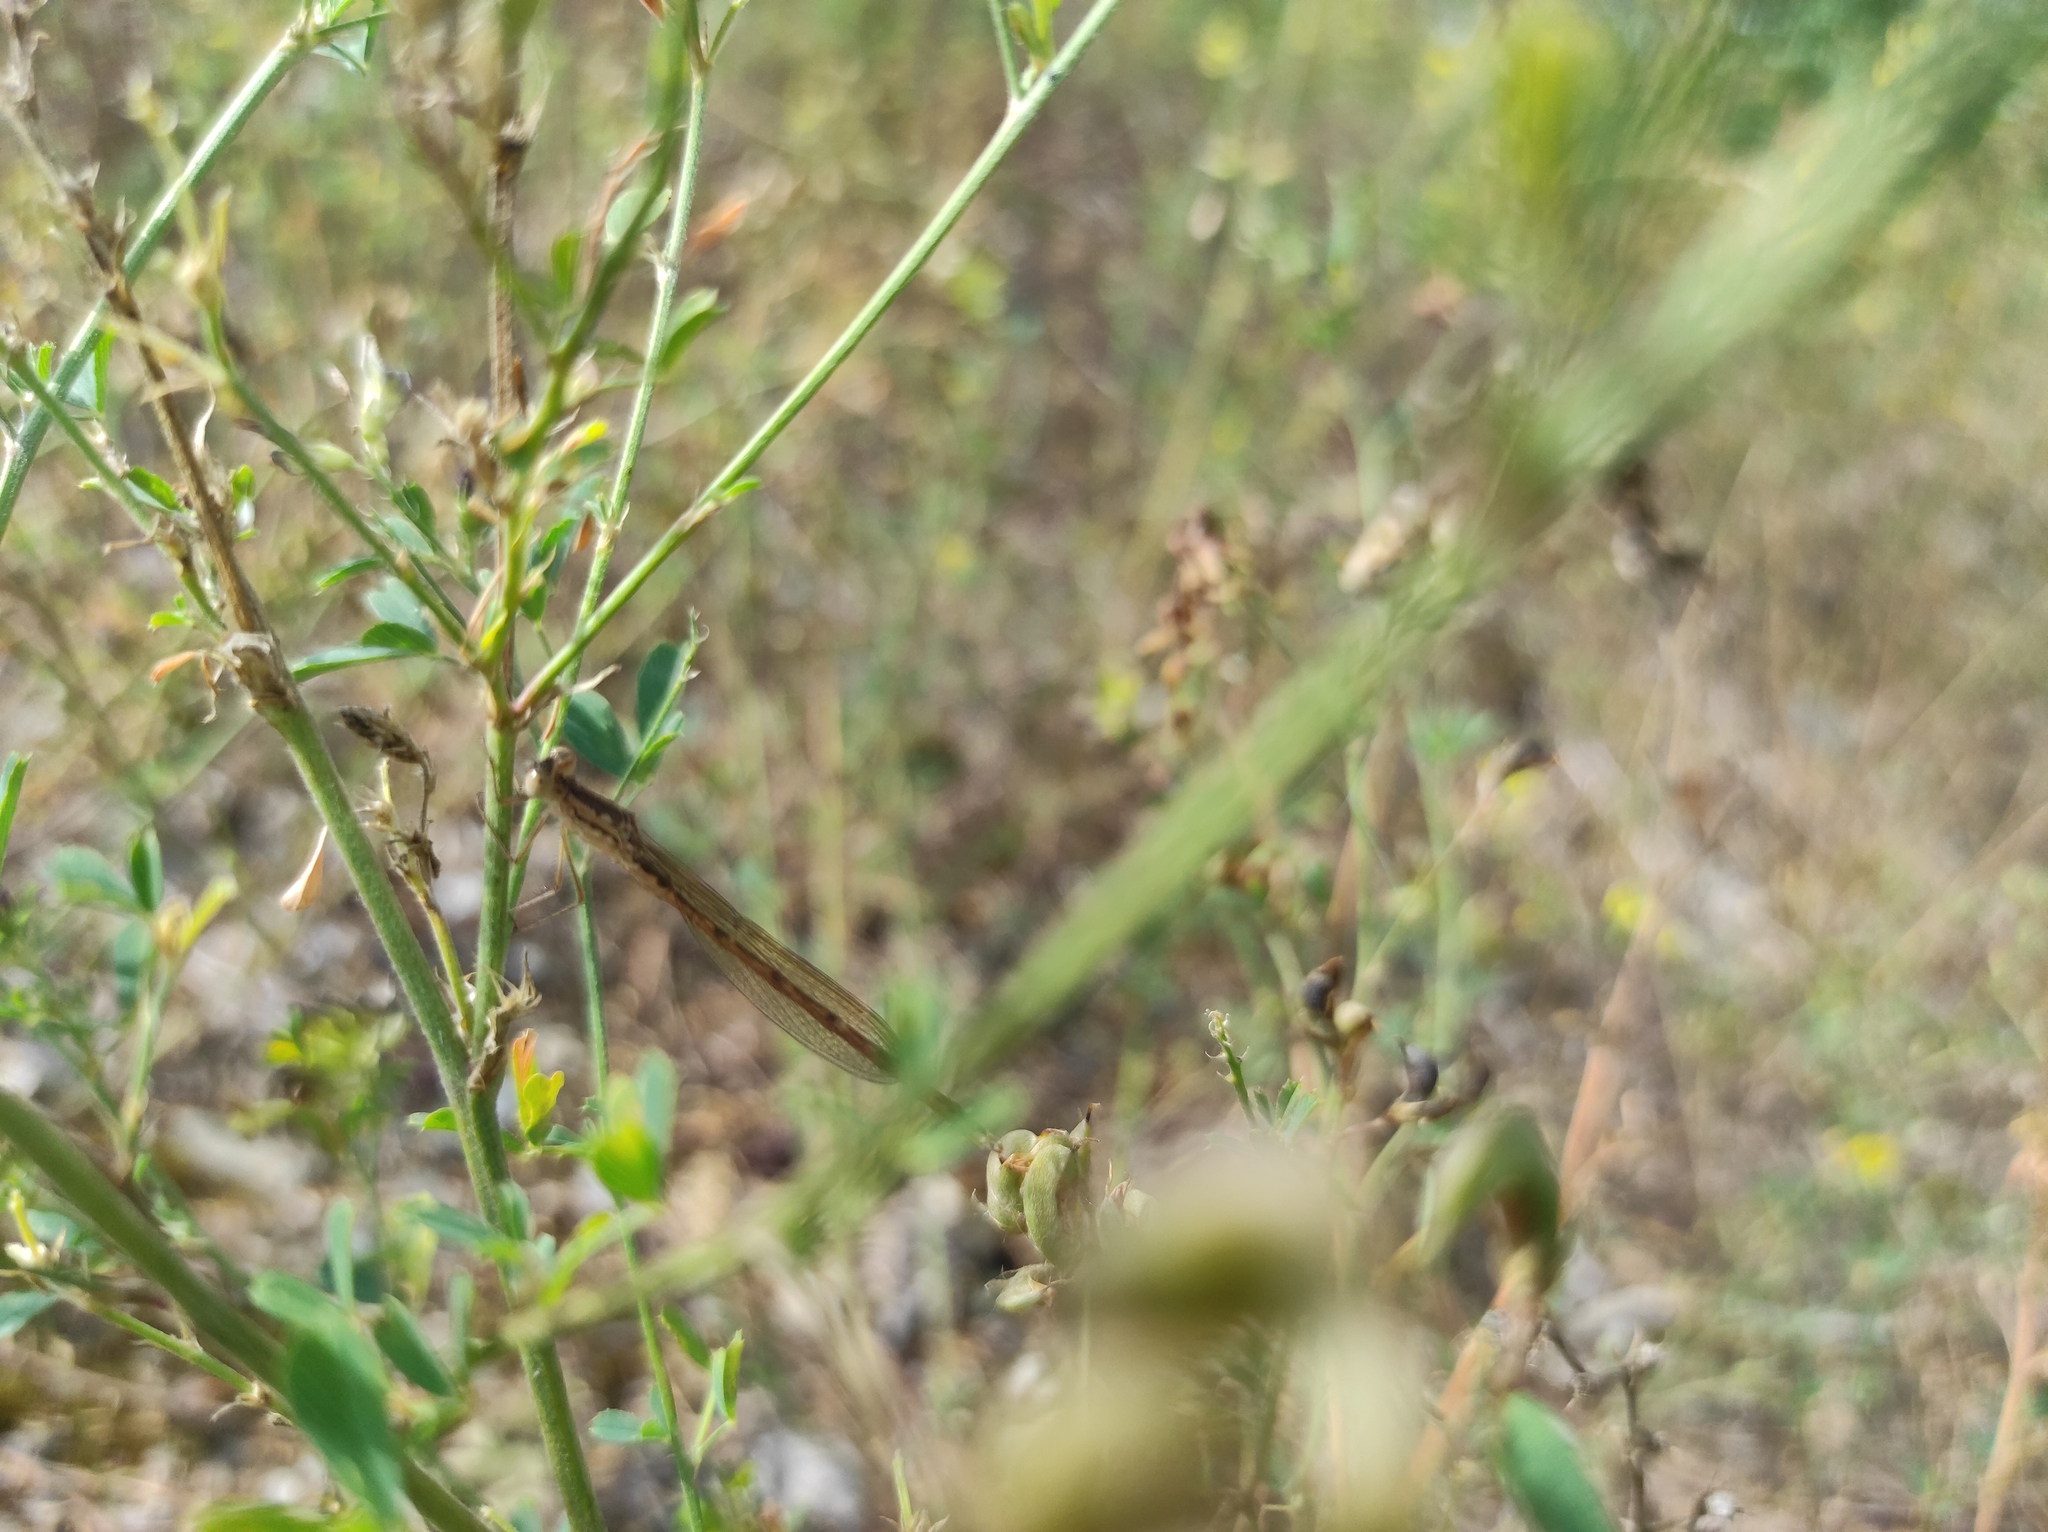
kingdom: Animalia
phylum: Arthropoda
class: Insecta
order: Odonata
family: Lestidae
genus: Sympecma
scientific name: Sympecma paedisca
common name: Siberian winter damsel
